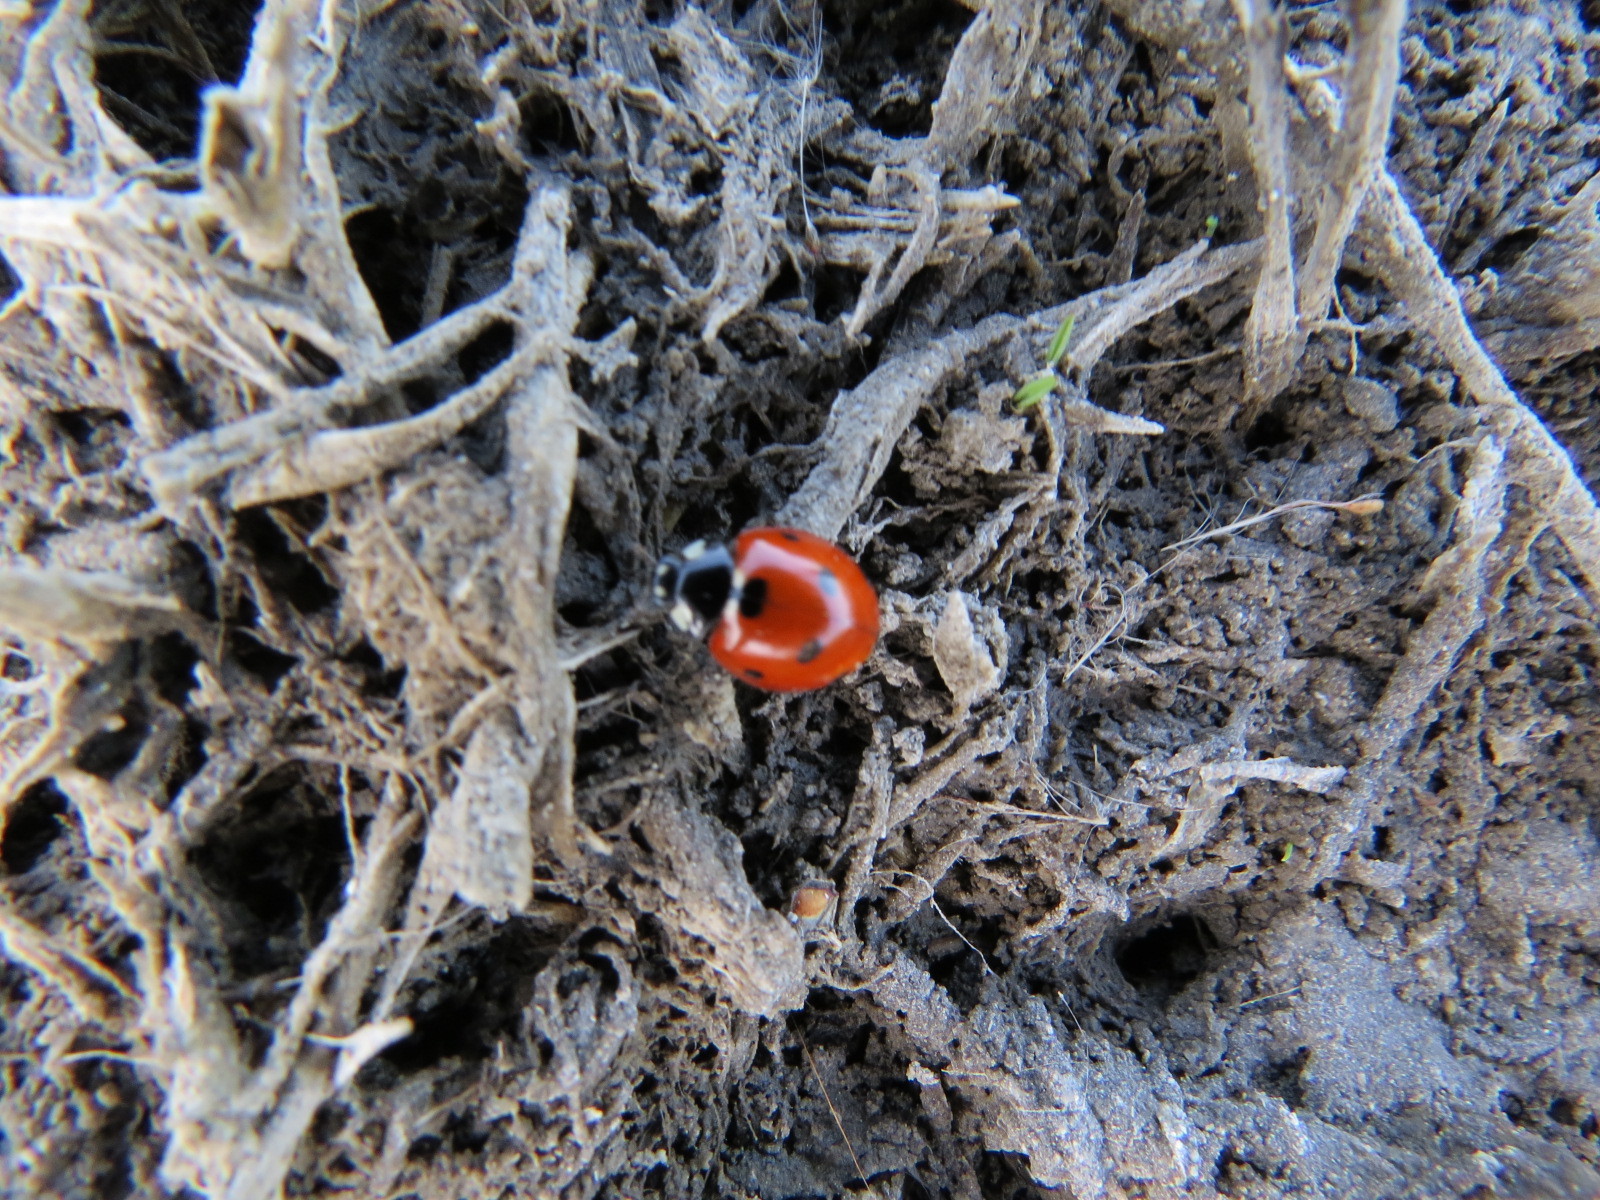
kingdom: Animalia
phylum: Arthropoda
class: Insecta
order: Coleoptera
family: Coccinellidae
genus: Coccinella
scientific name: Coccinella septempunctata
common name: Sevenspotted lady beetle
